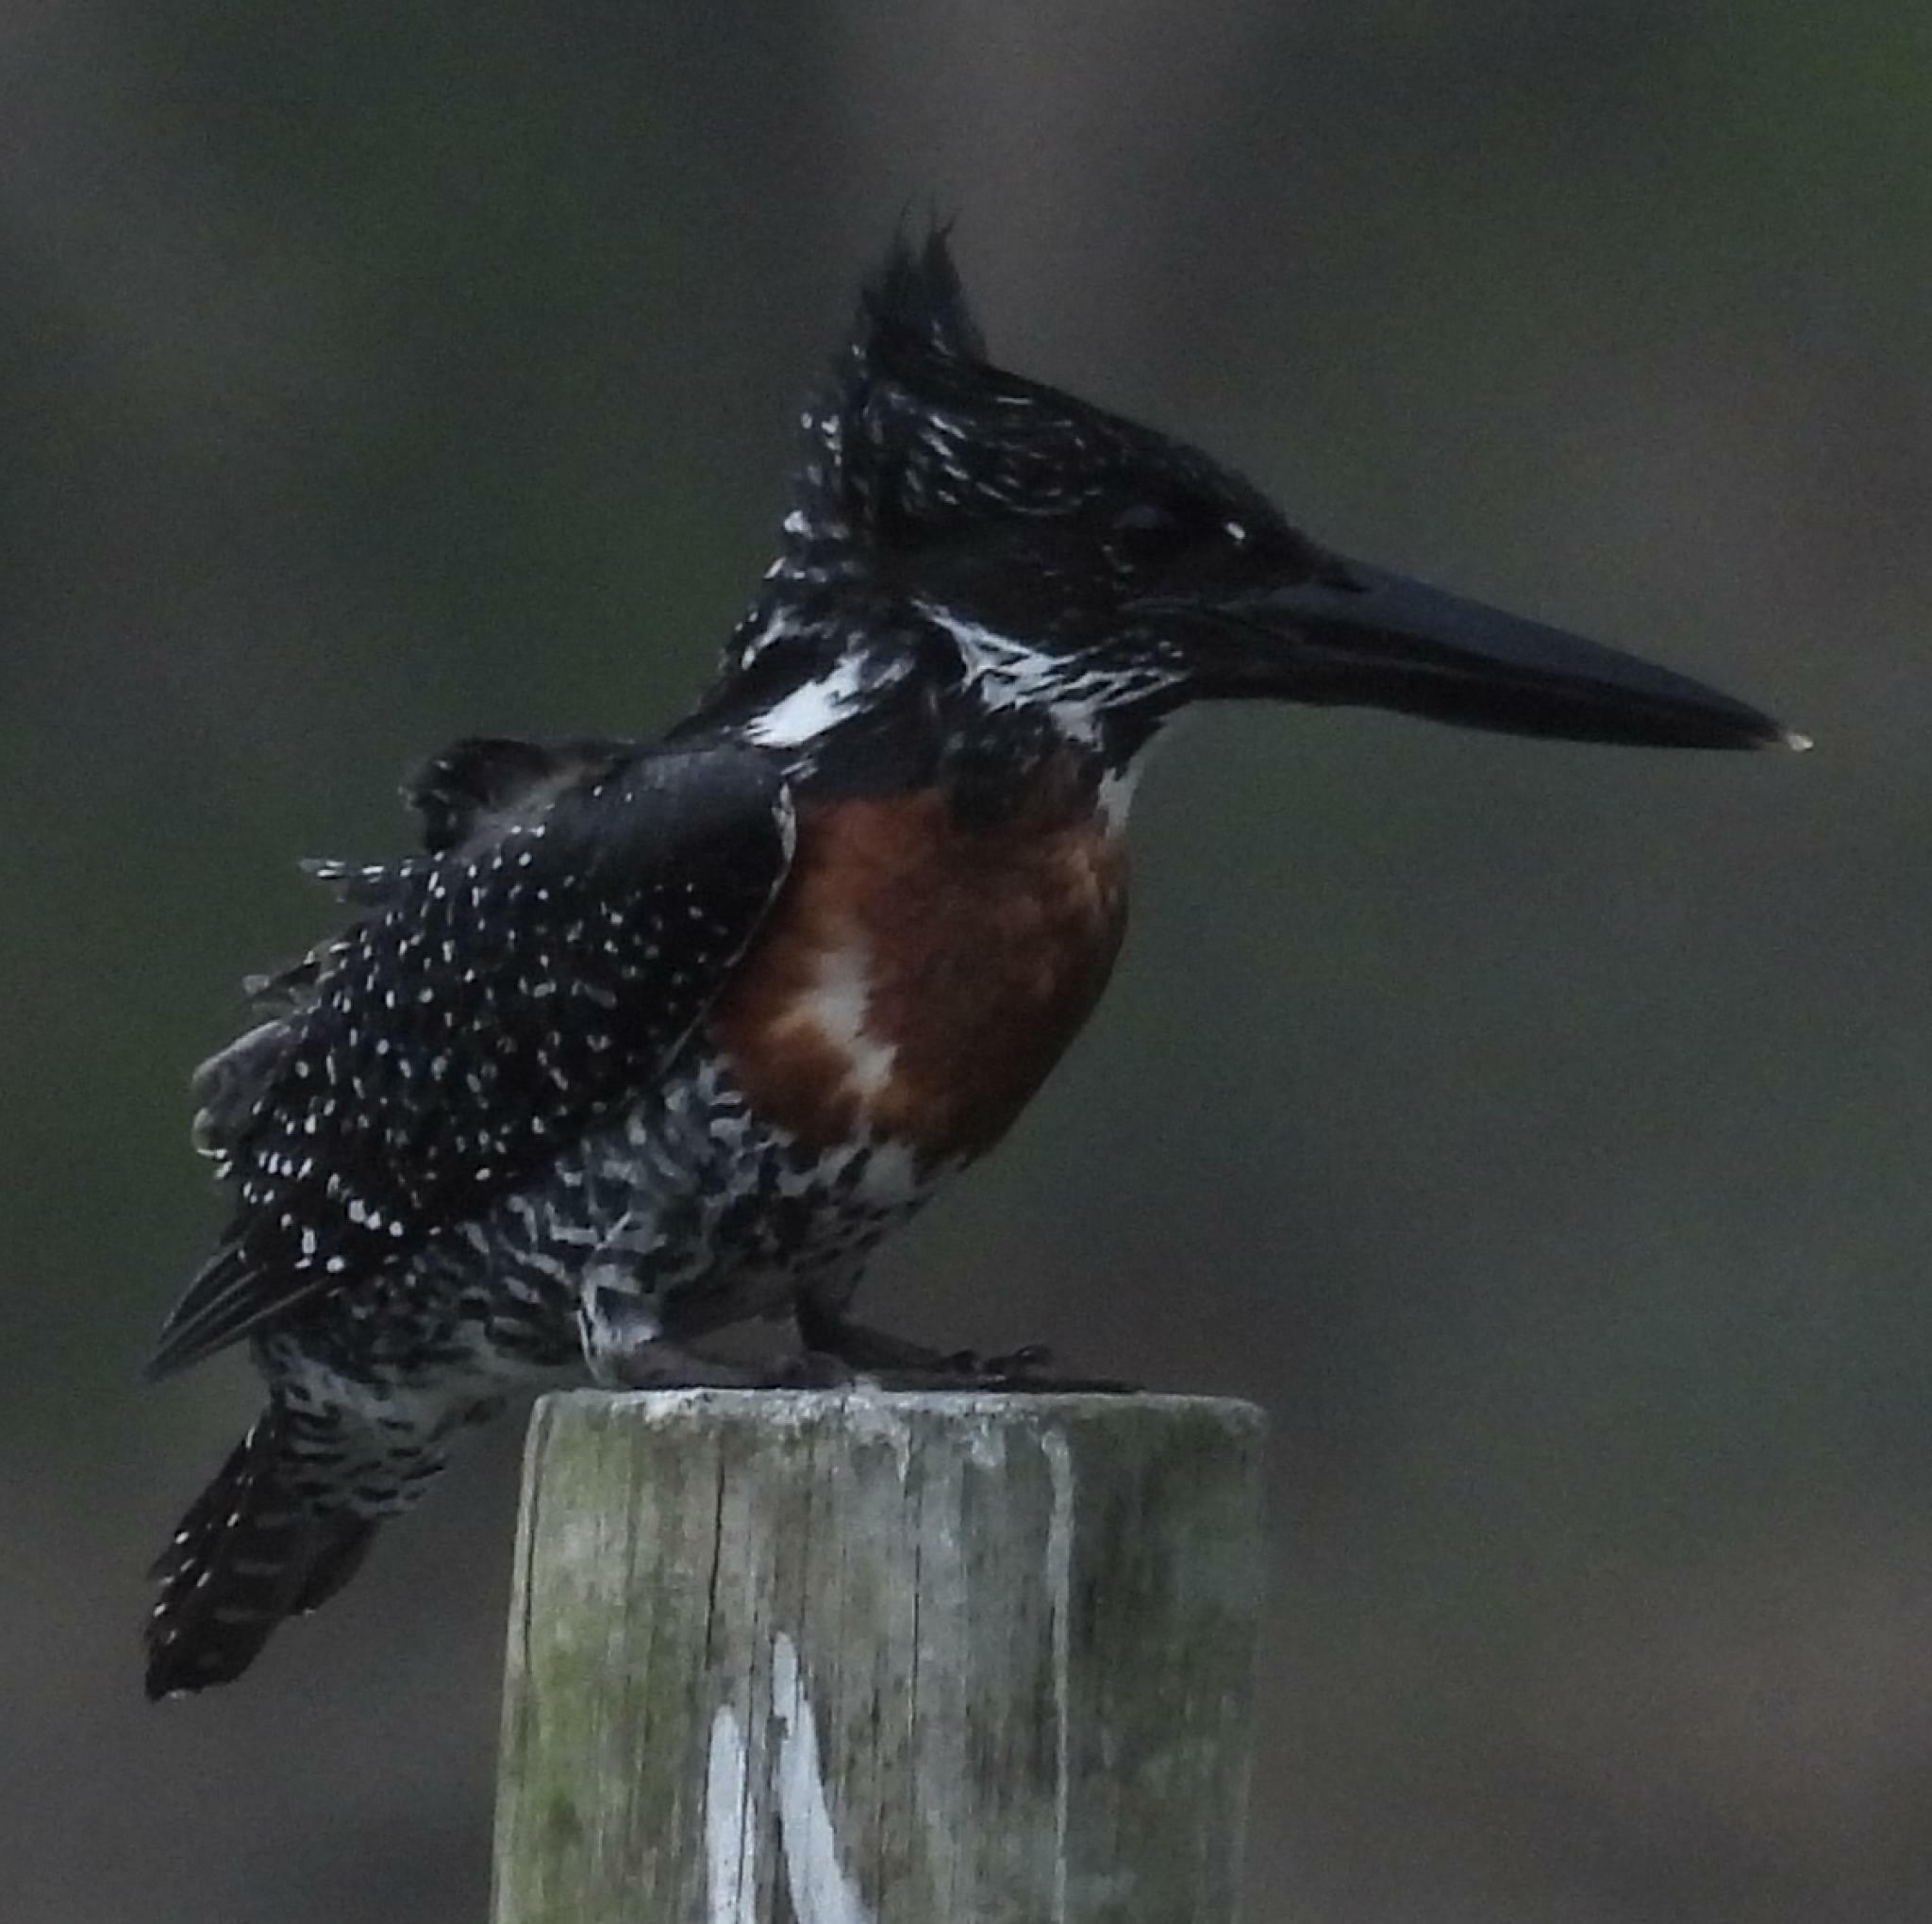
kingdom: Animalia
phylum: Chordata
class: Aves
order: Coraciiformes
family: Alcedinidae
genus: Megaceryle
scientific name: Megaceryle maxima
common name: Giant kingfisher
